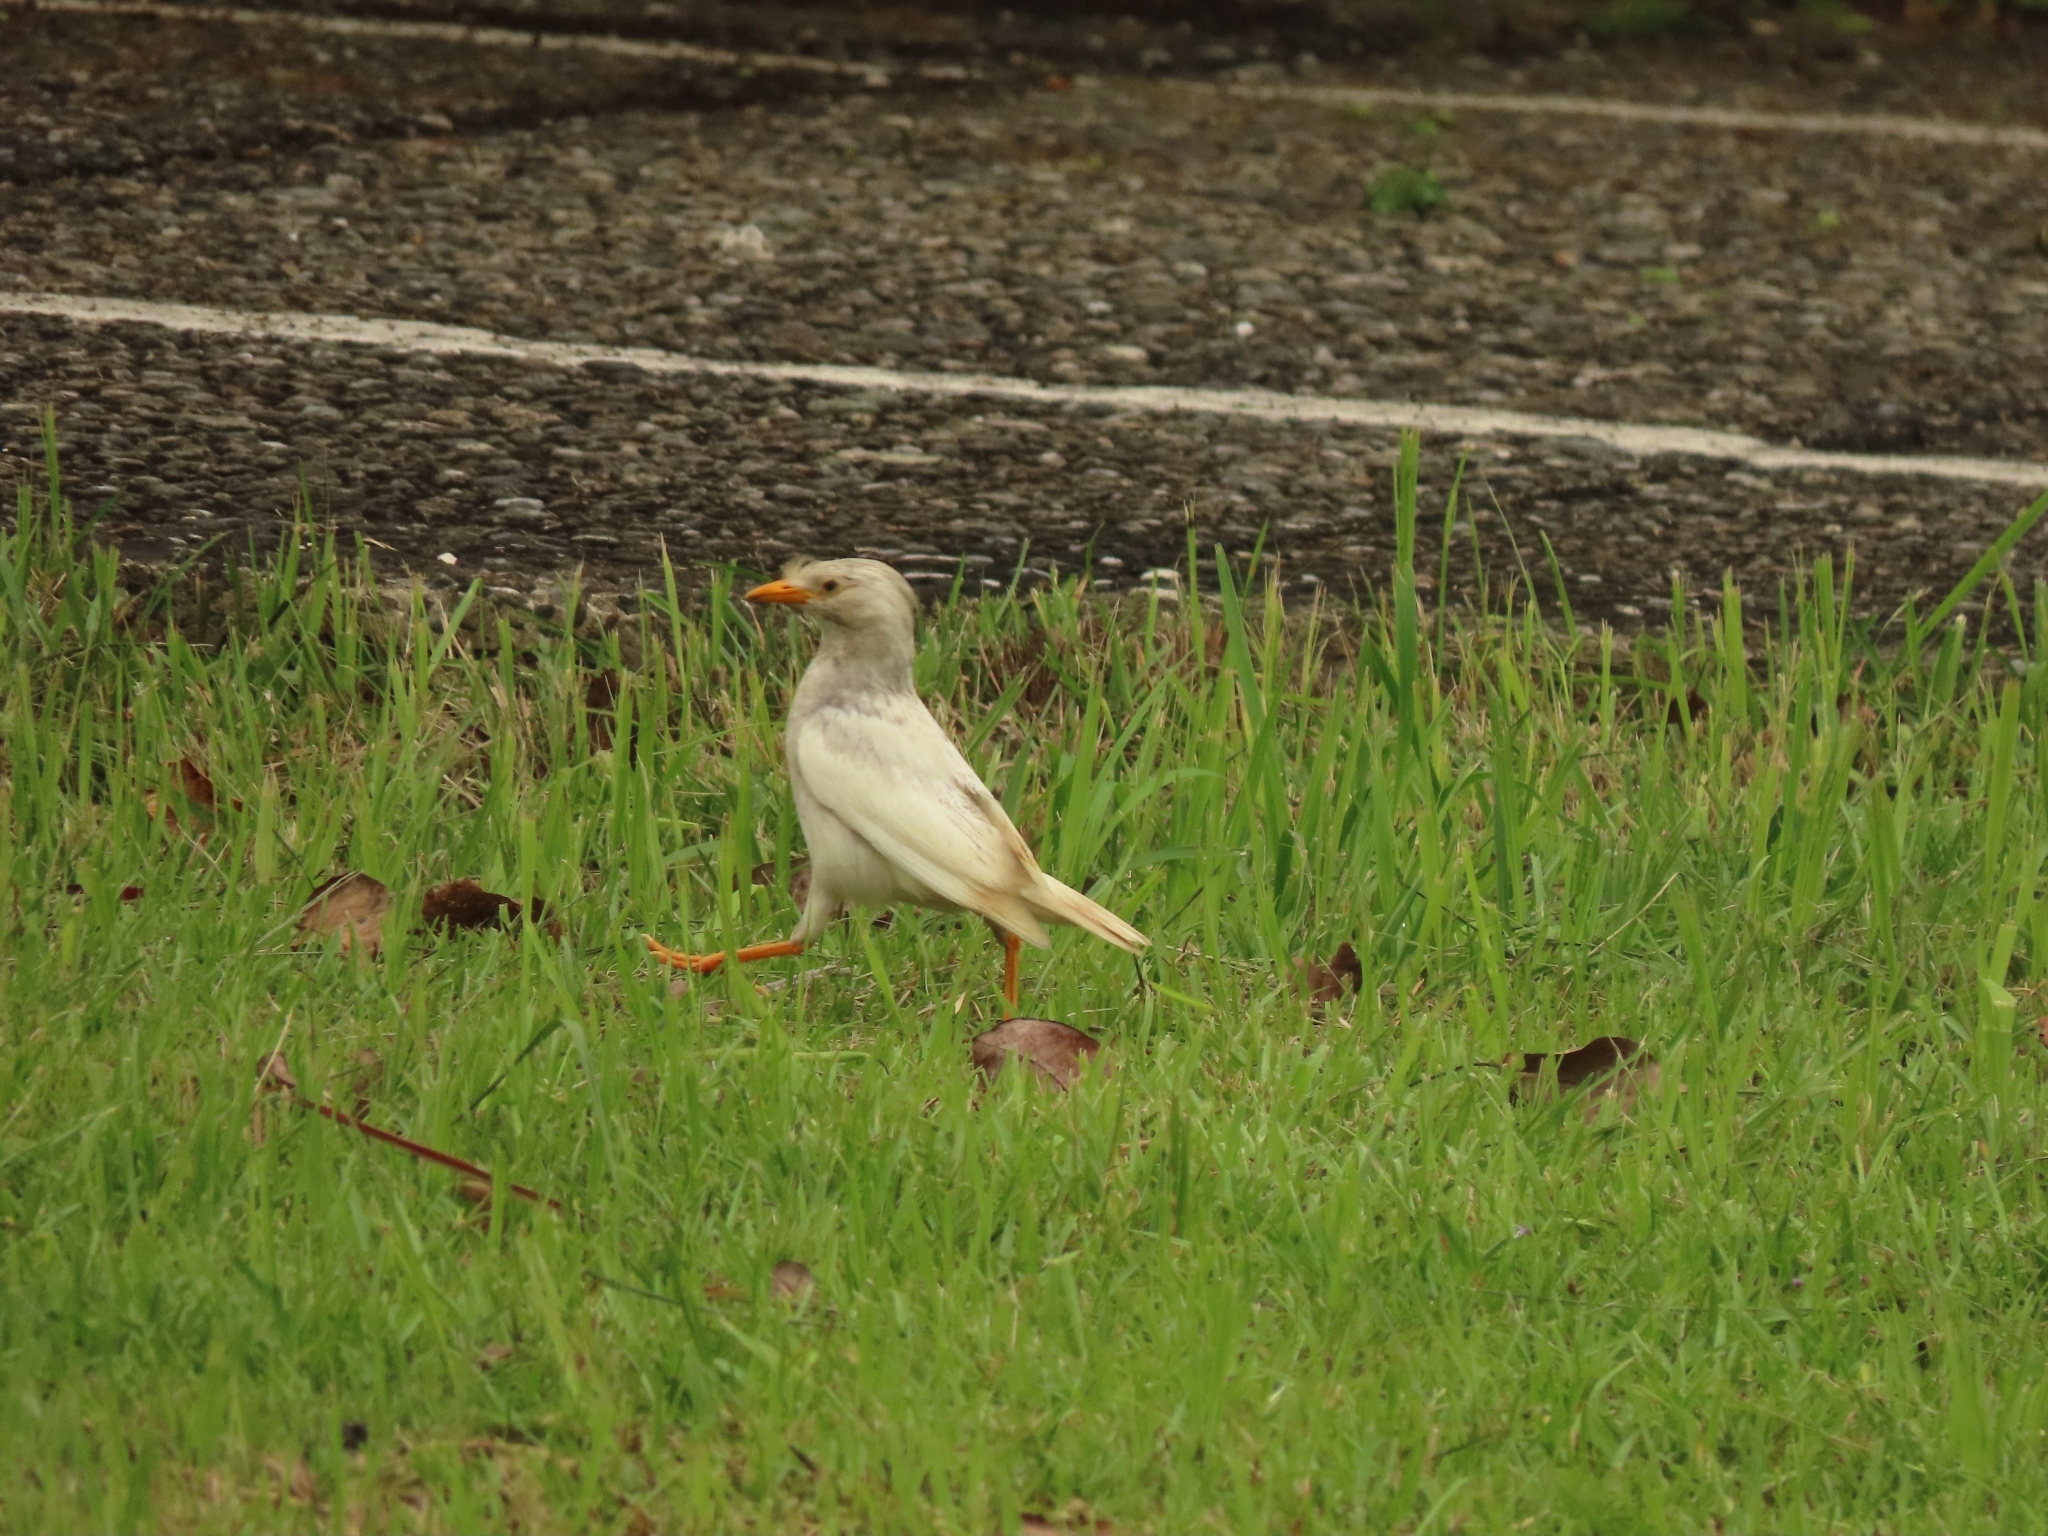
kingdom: Animalia
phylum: Chordata
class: Aves
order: Passeriformes
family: Sturnidae
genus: Acridotheres
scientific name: Acridotheres javanicus
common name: Javan myna
